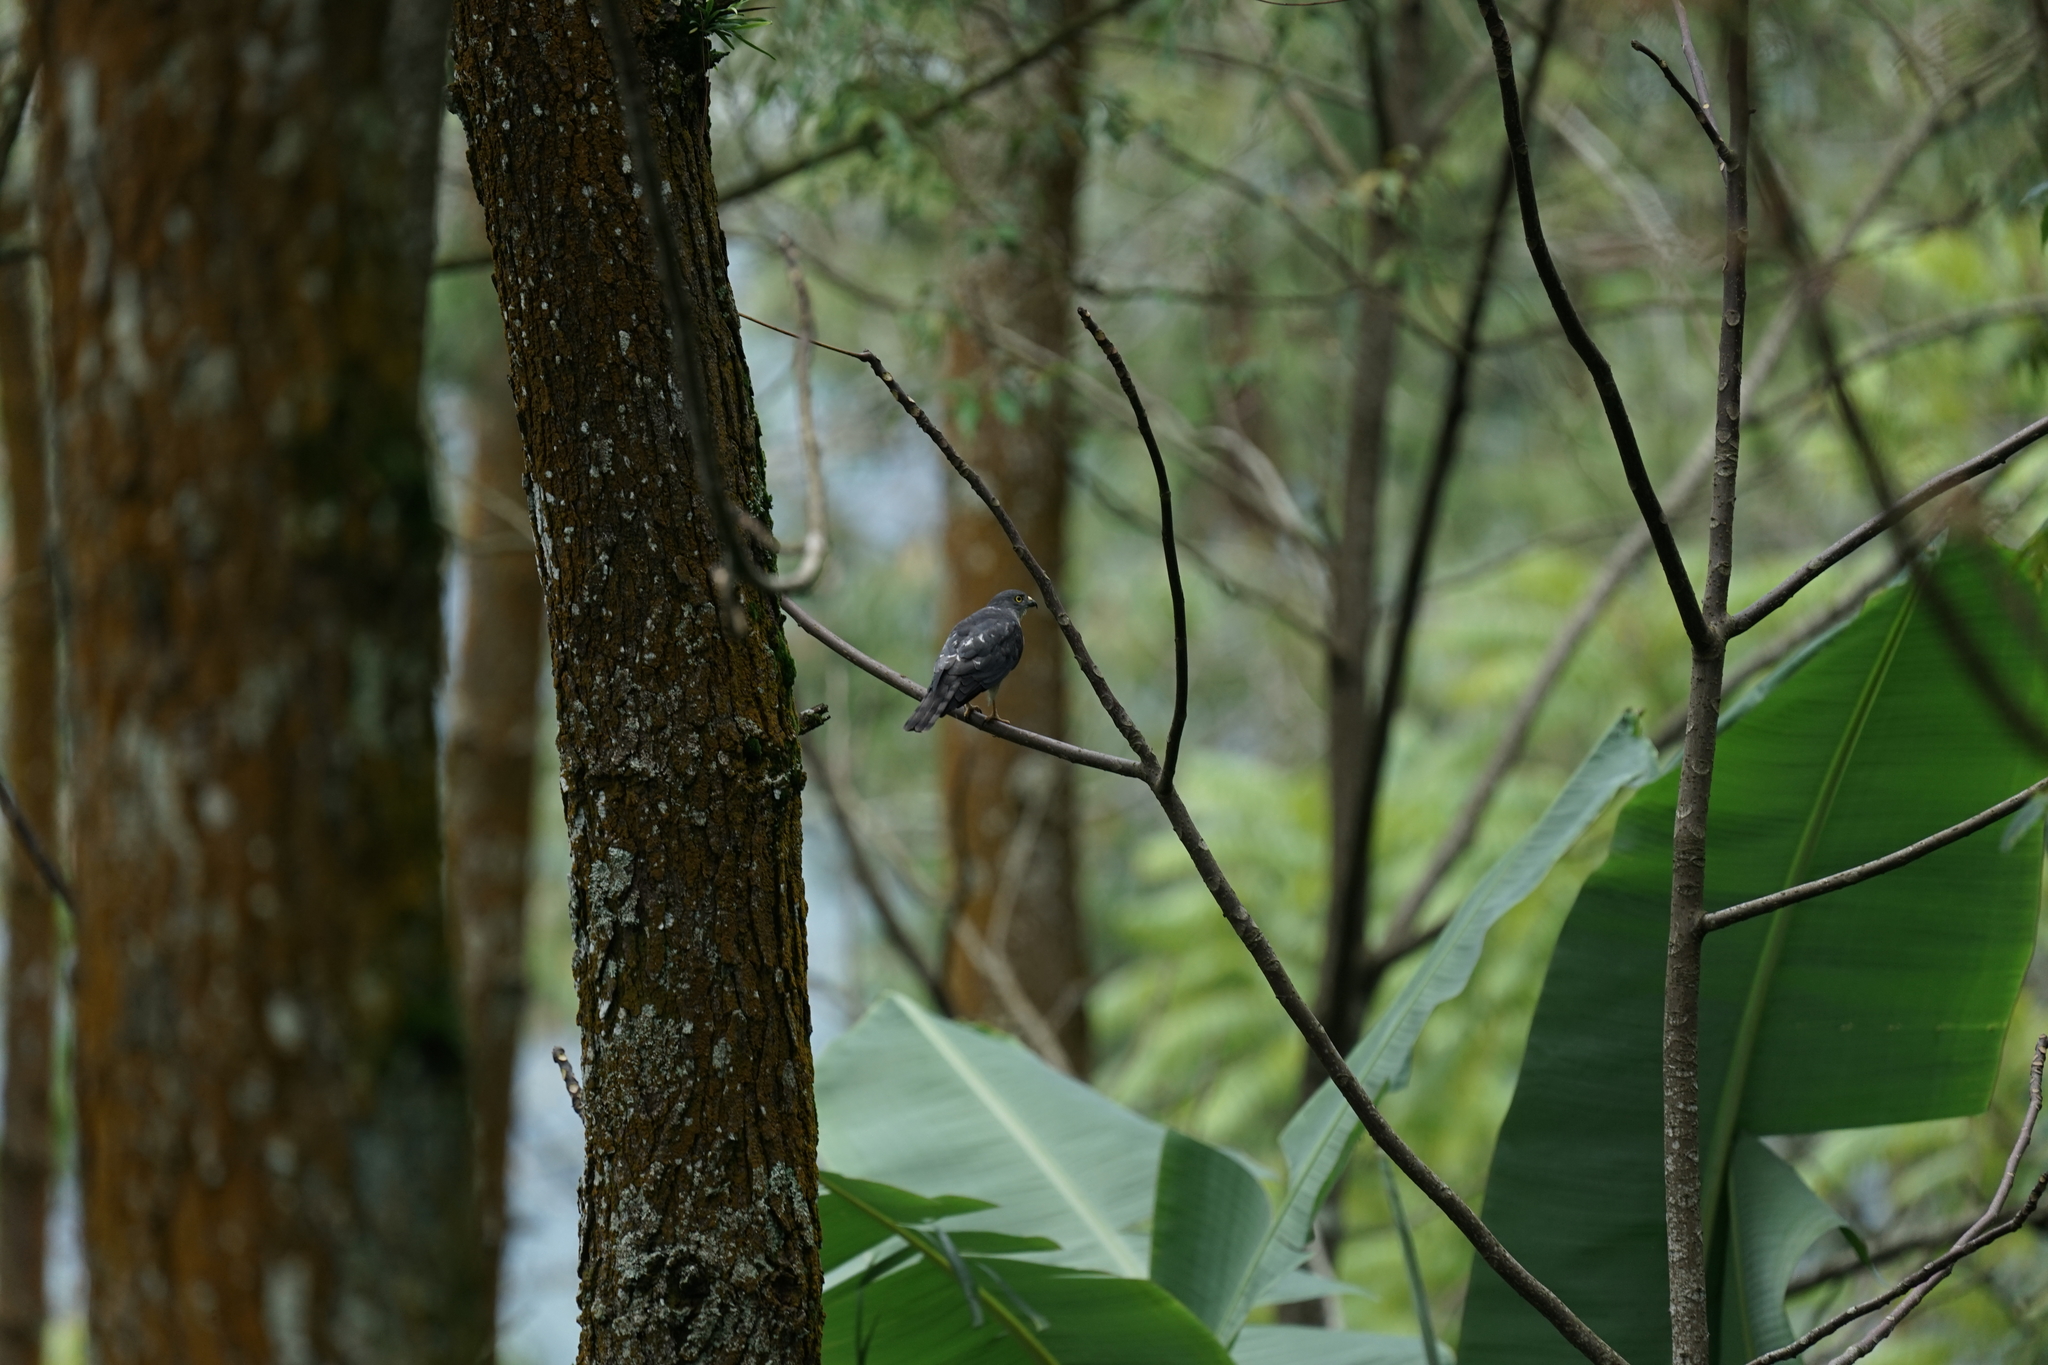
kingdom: Animalia
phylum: Chordata
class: Aves
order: Accipitriformes
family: Accipitridae
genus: Accipiter
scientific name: Accipiter gularis
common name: Japanese sparrowhawk
